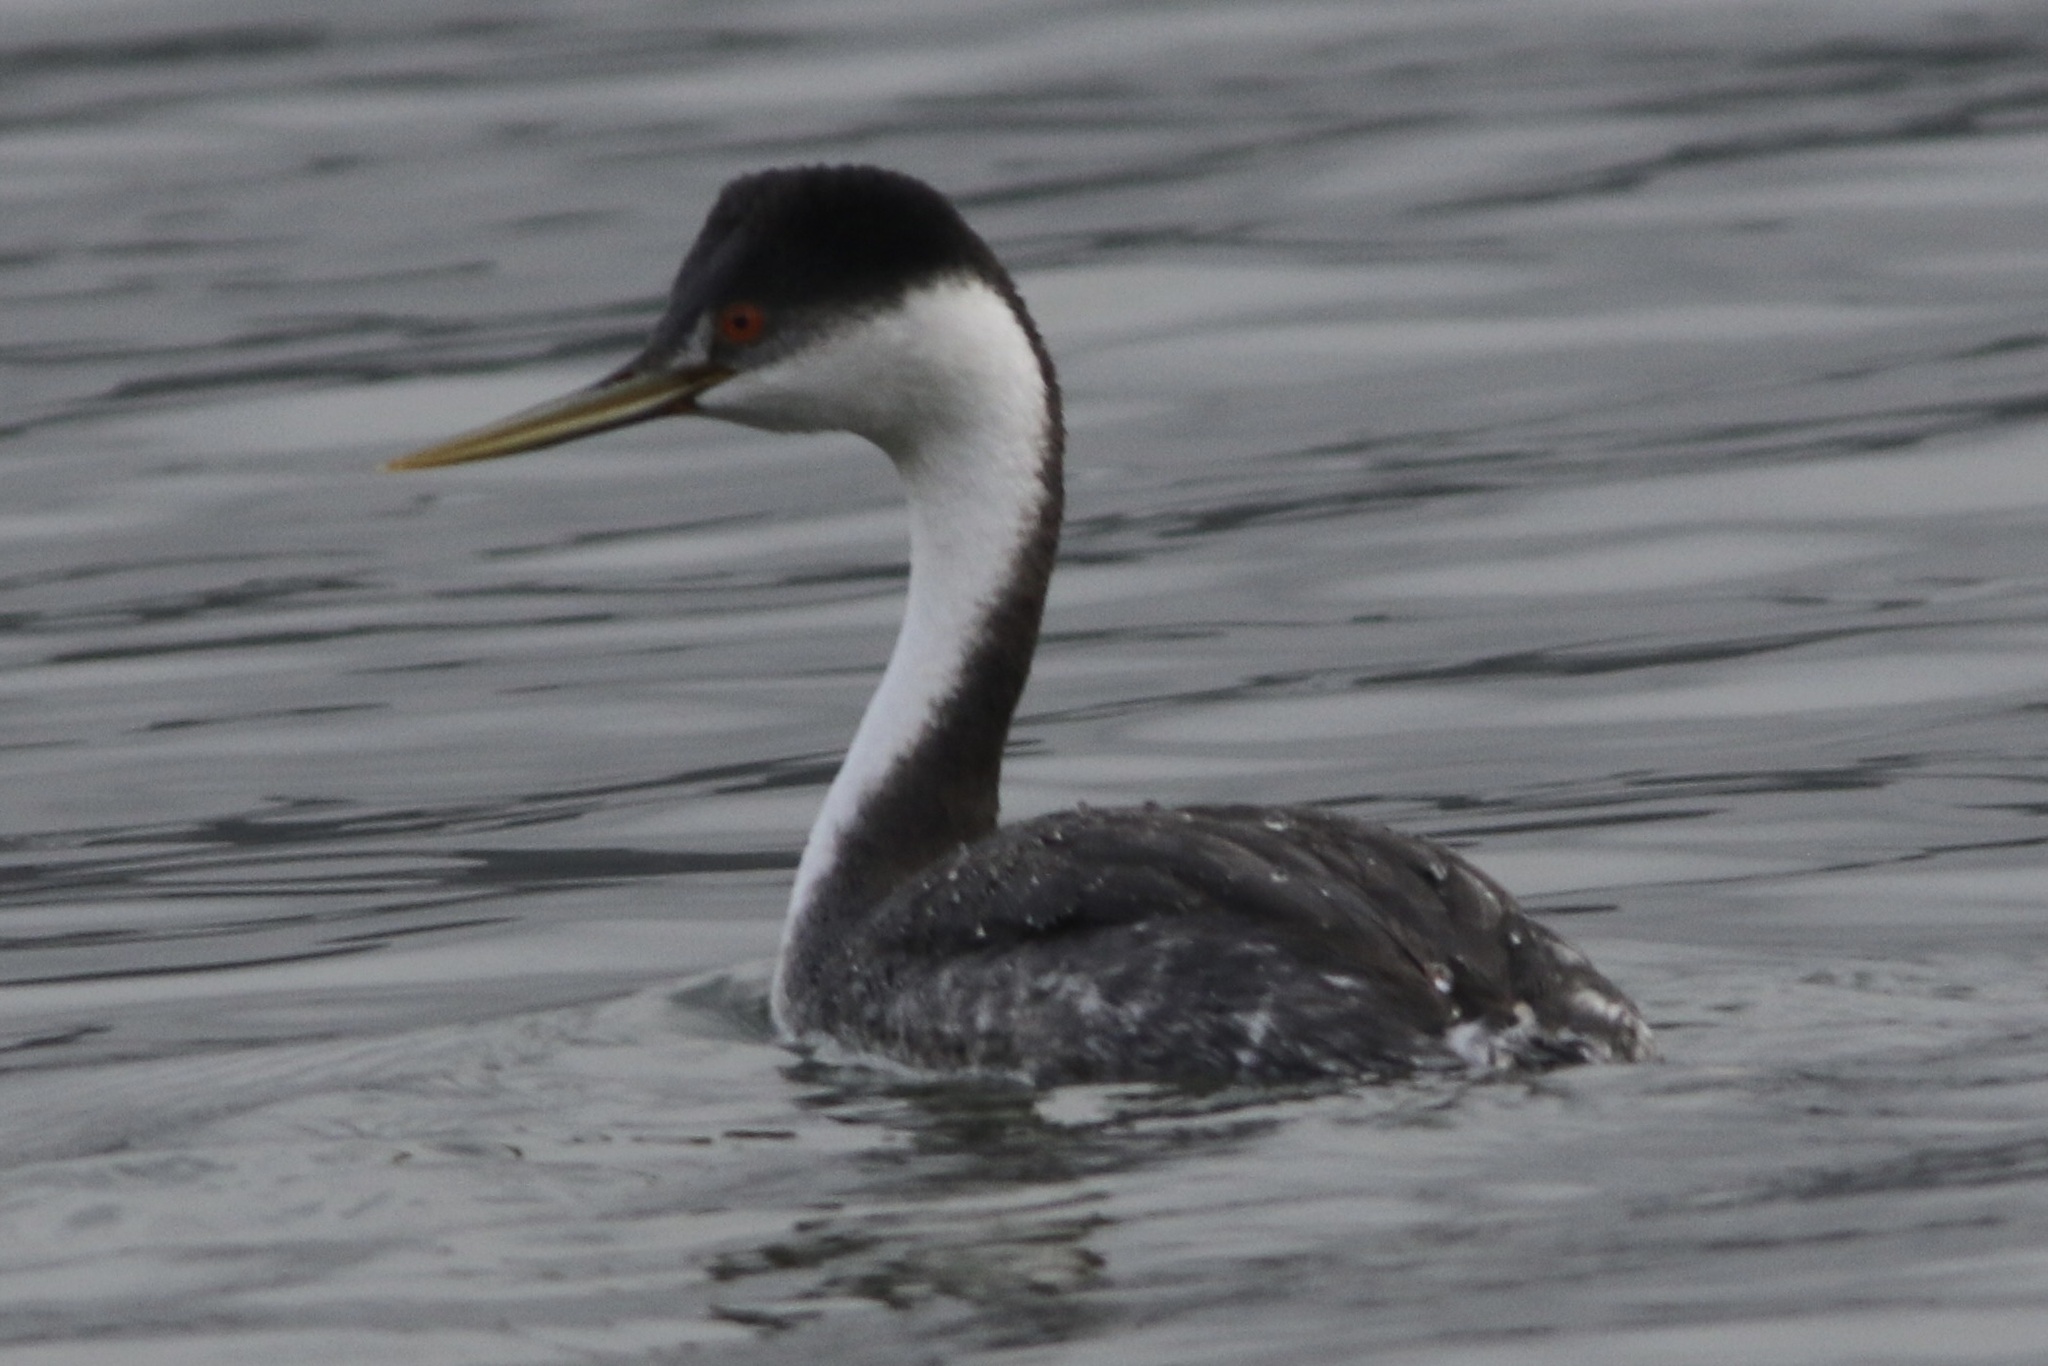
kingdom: Animalia
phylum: Chordata
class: Aves
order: Podicipediformes
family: Podicipedidae
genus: Aechmophorus
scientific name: Aechmophorus occidentalis
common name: Western grebe
